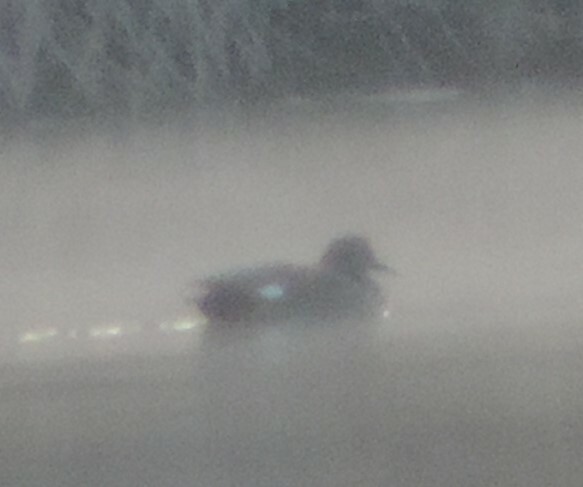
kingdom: Animalia
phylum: Chordata
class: Aves
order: Anseriformes
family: Anatidae
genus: Mareca
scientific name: Mareca strepera
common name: Gadwall
